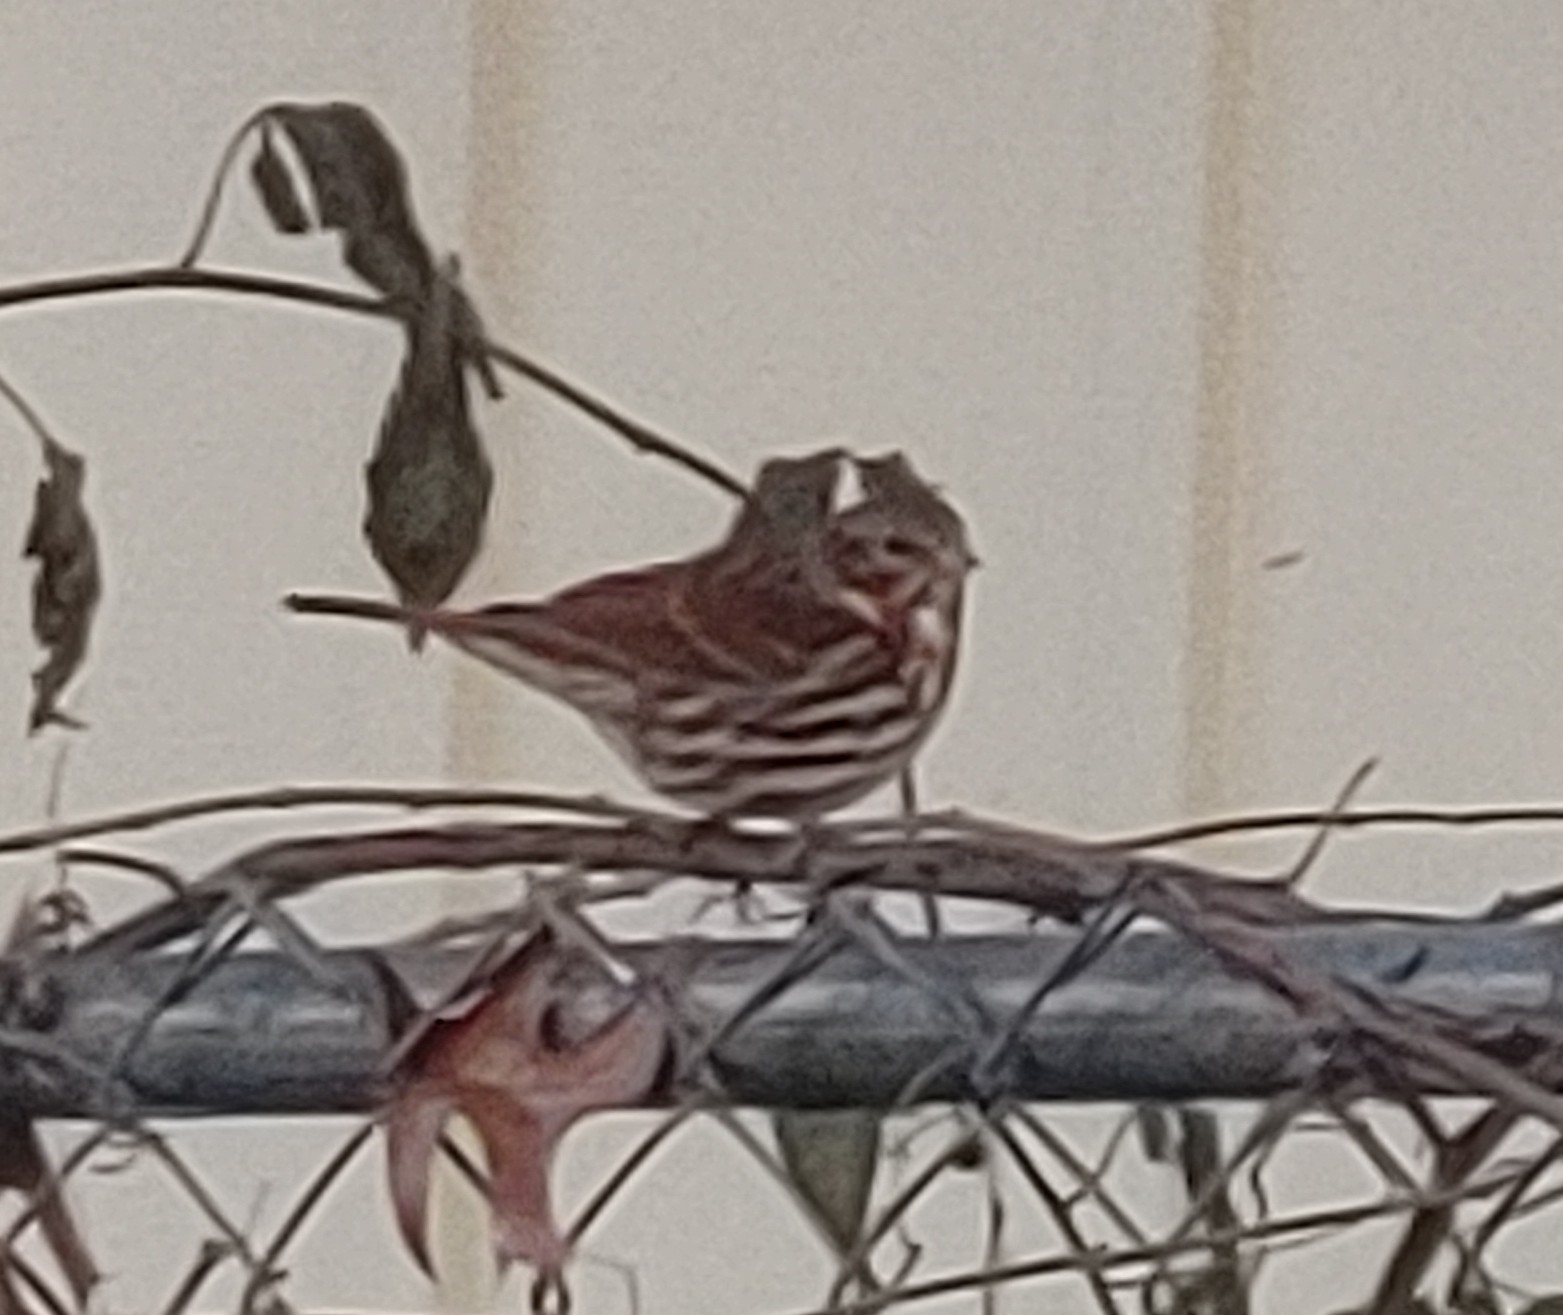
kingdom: Animalia
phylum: Chordata
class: Aves
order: Passeriformes
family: Passerellidae
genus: Passerella
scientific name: Passerella iliaca
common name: Fox sparrow
